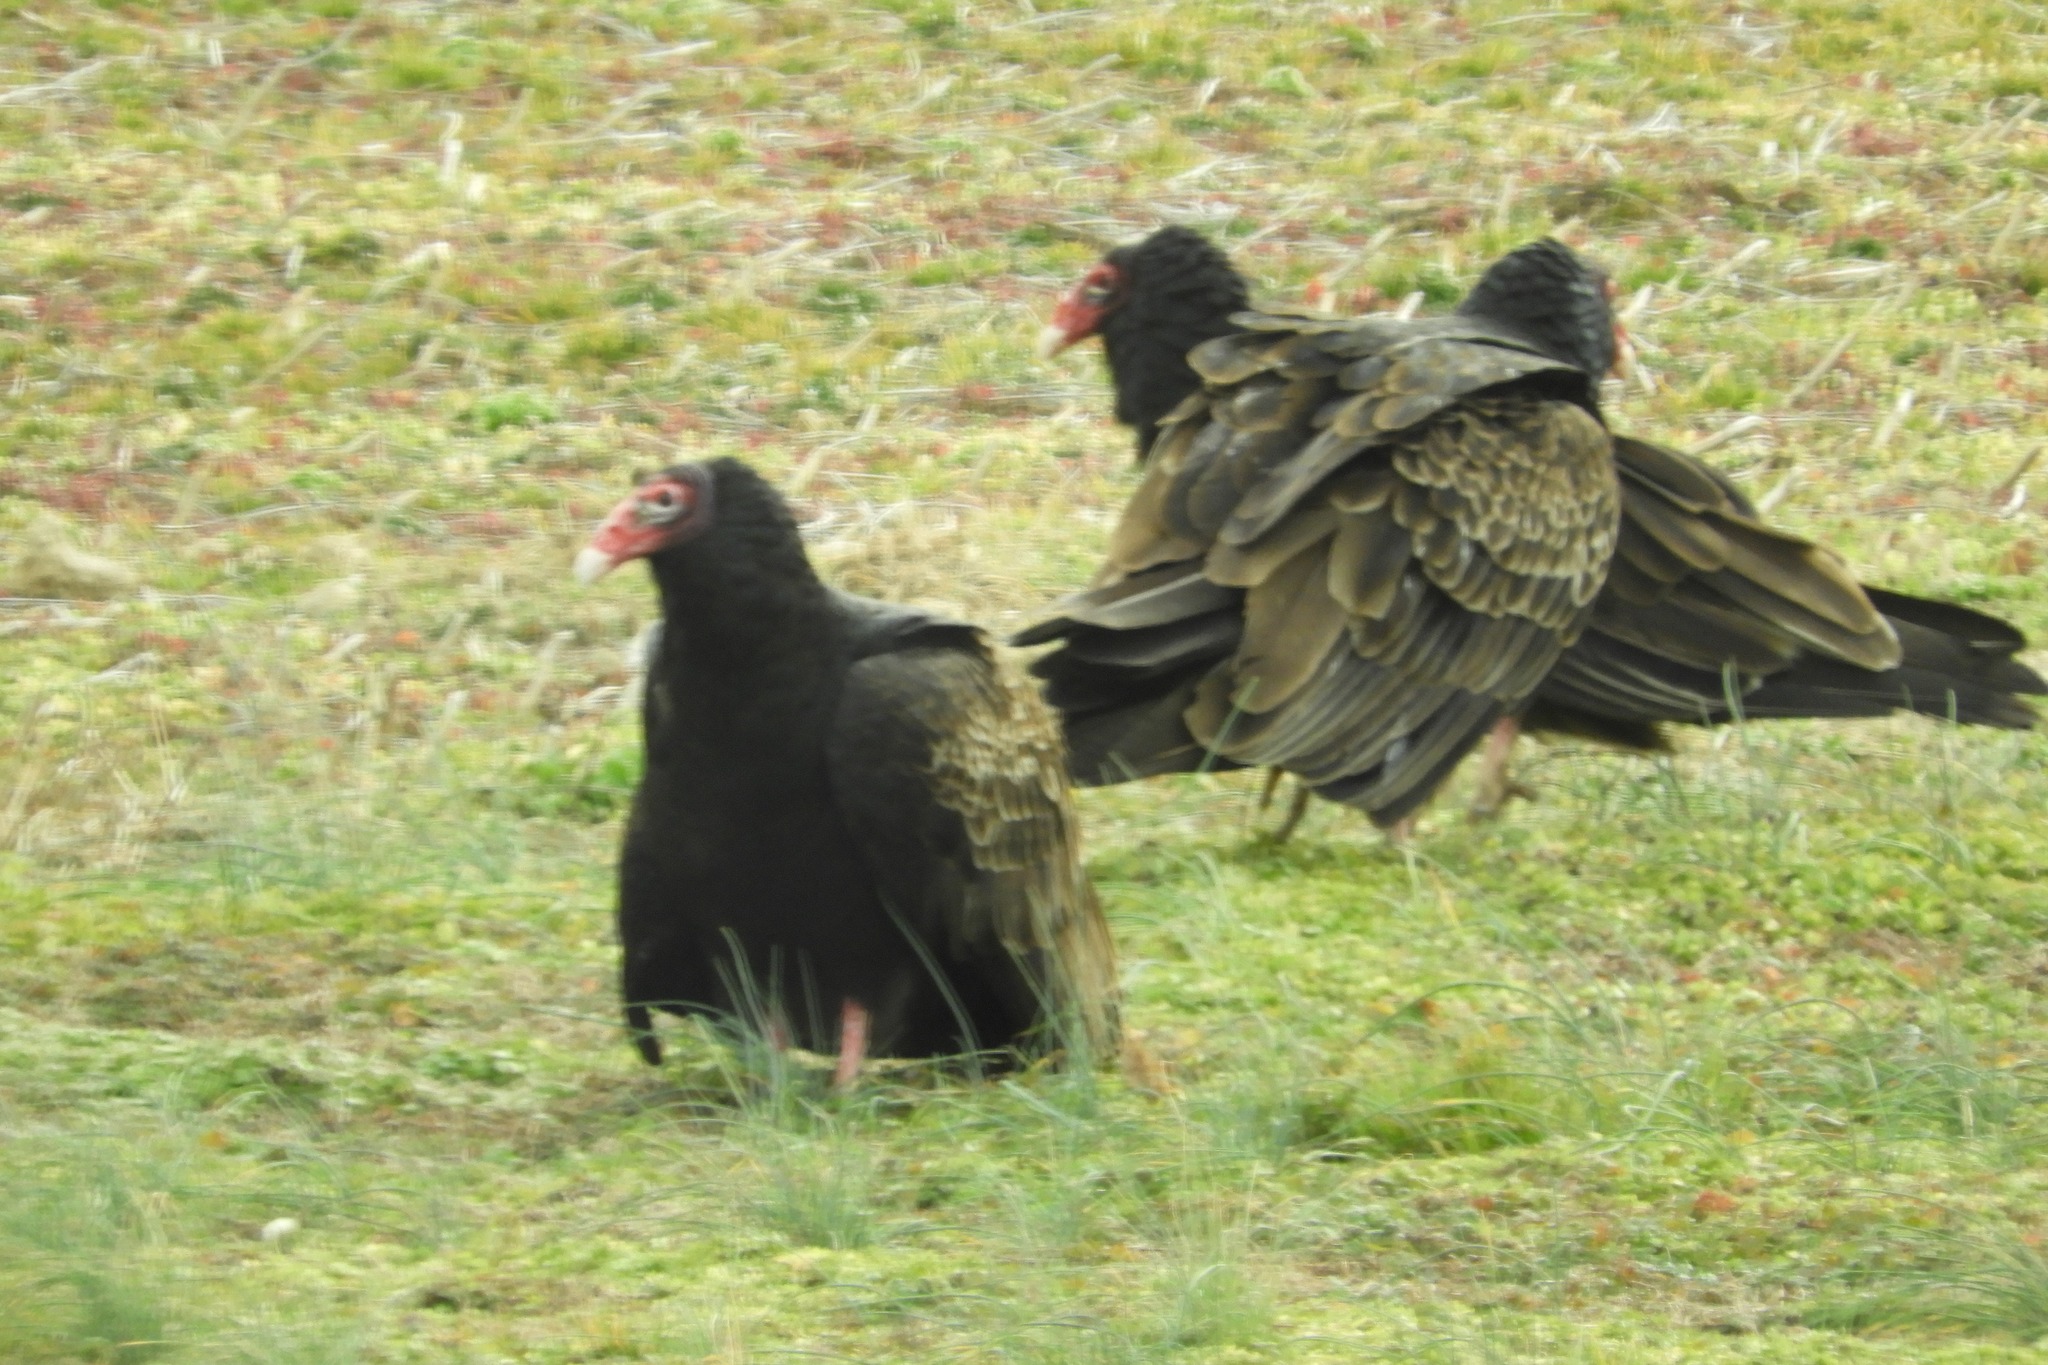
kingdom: Animalia
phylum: Chordata
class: Aves
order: Accipitriformes
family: Cathartidae
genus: Cathartes
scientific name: Cathartes aura
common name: Turkey vulture
